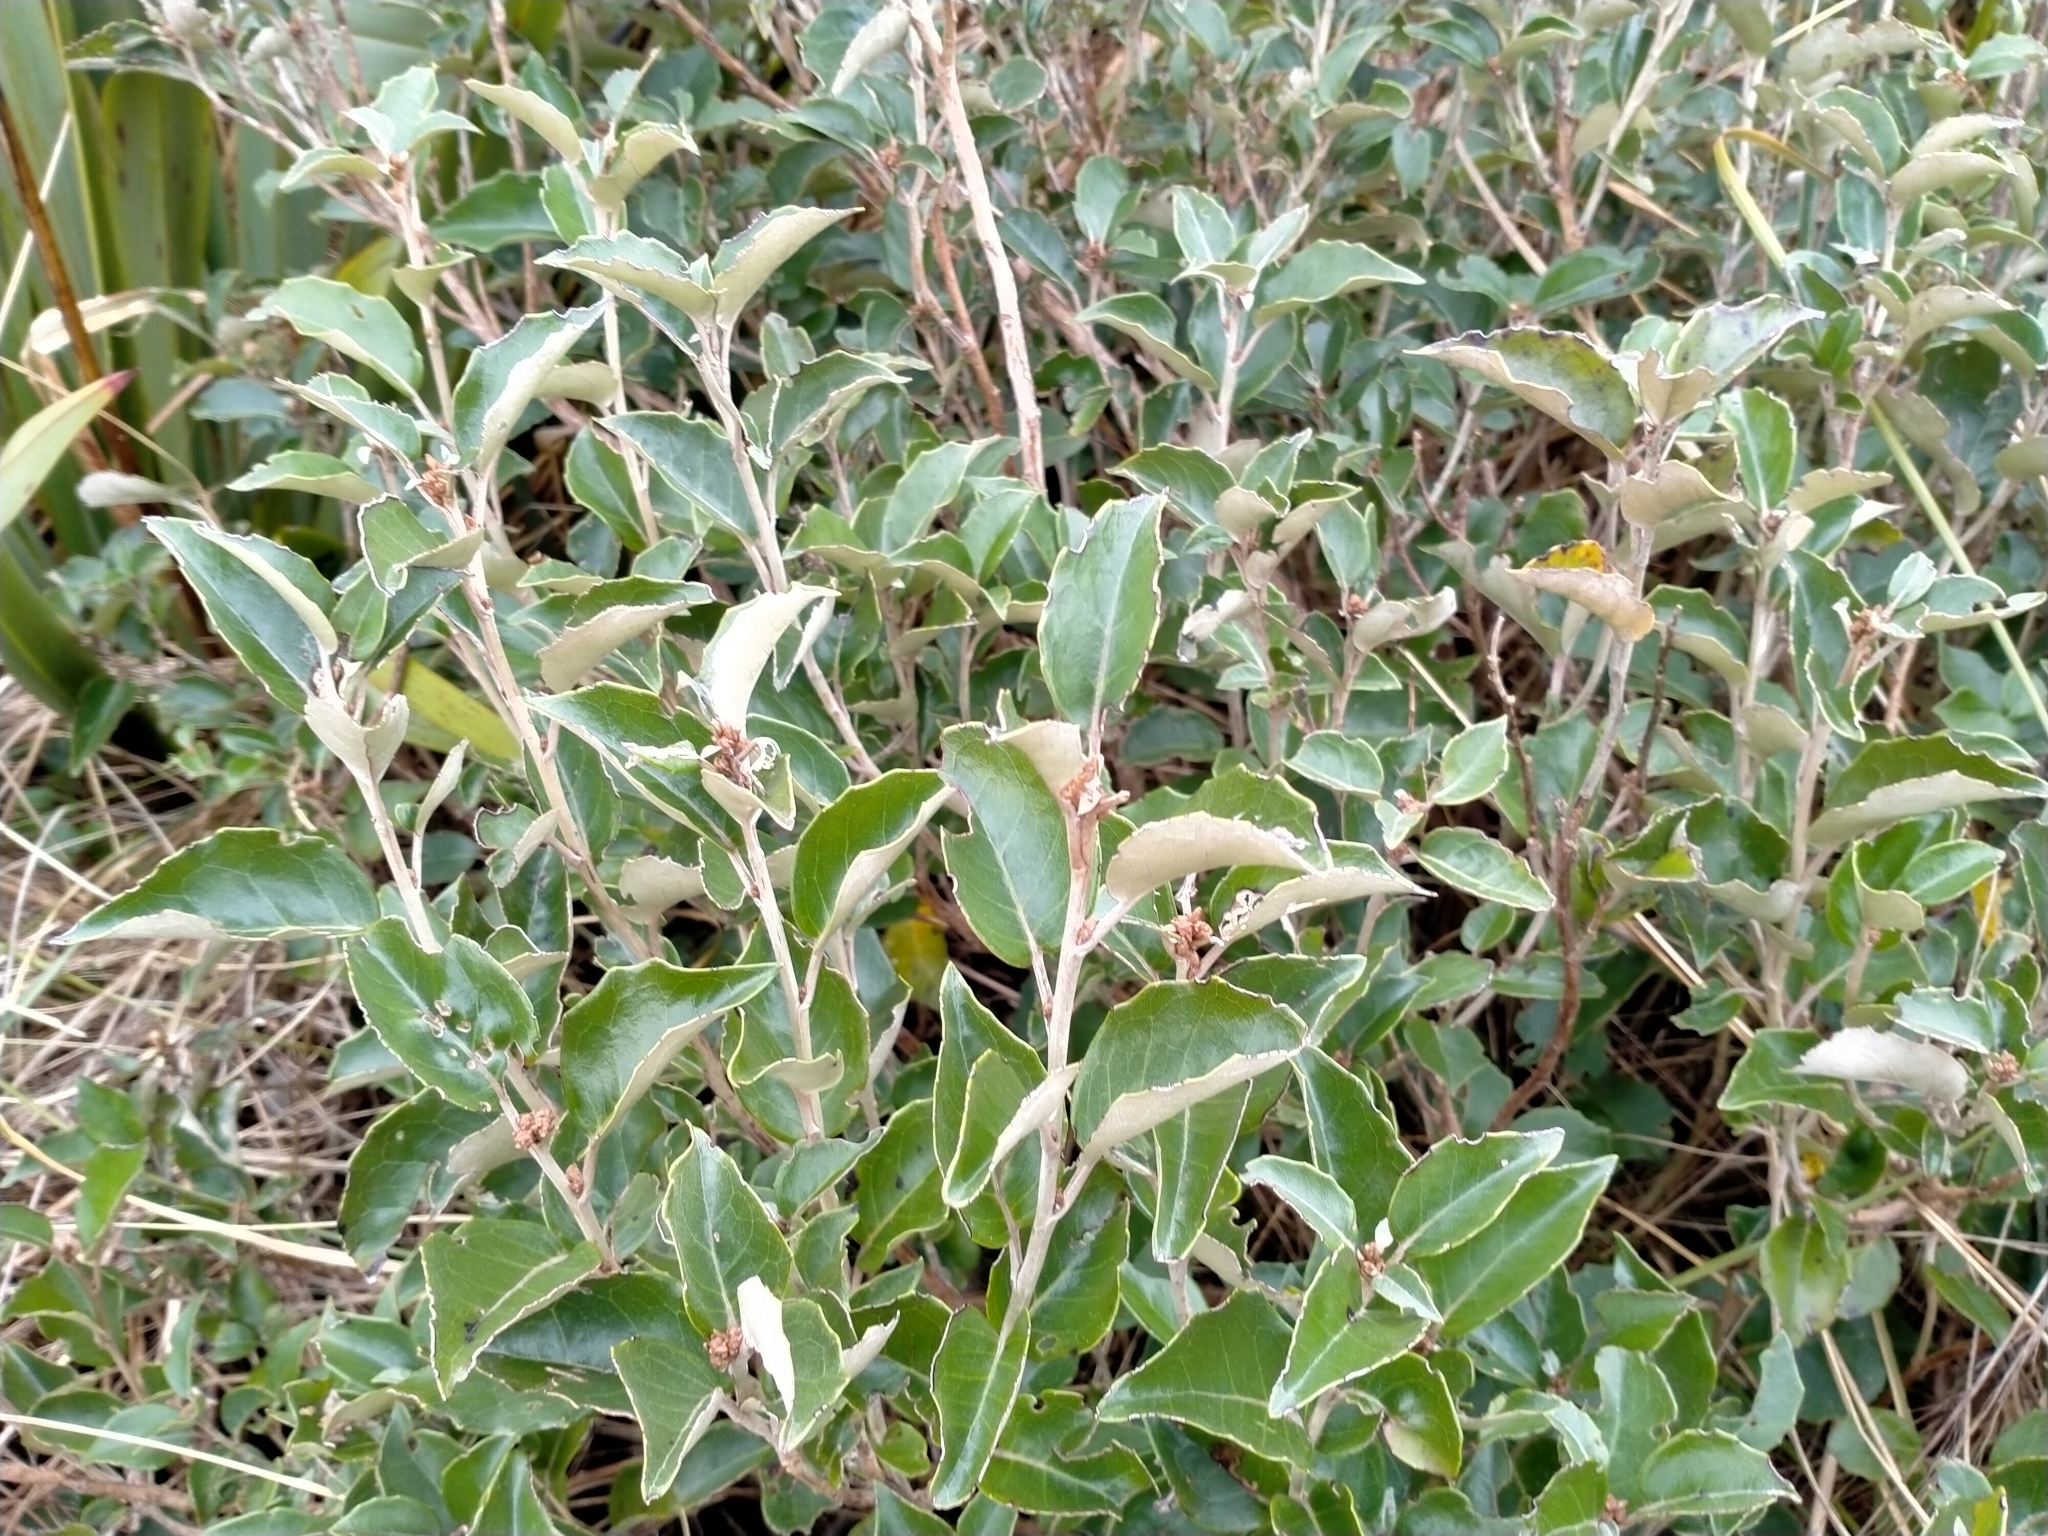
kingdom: Plantae
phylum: Tracheophyta
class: Magnoliopsida
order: Asterales
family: Asteraceae
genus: Olearia
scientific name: Olearia arborescens
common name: Glossy tree daisy
